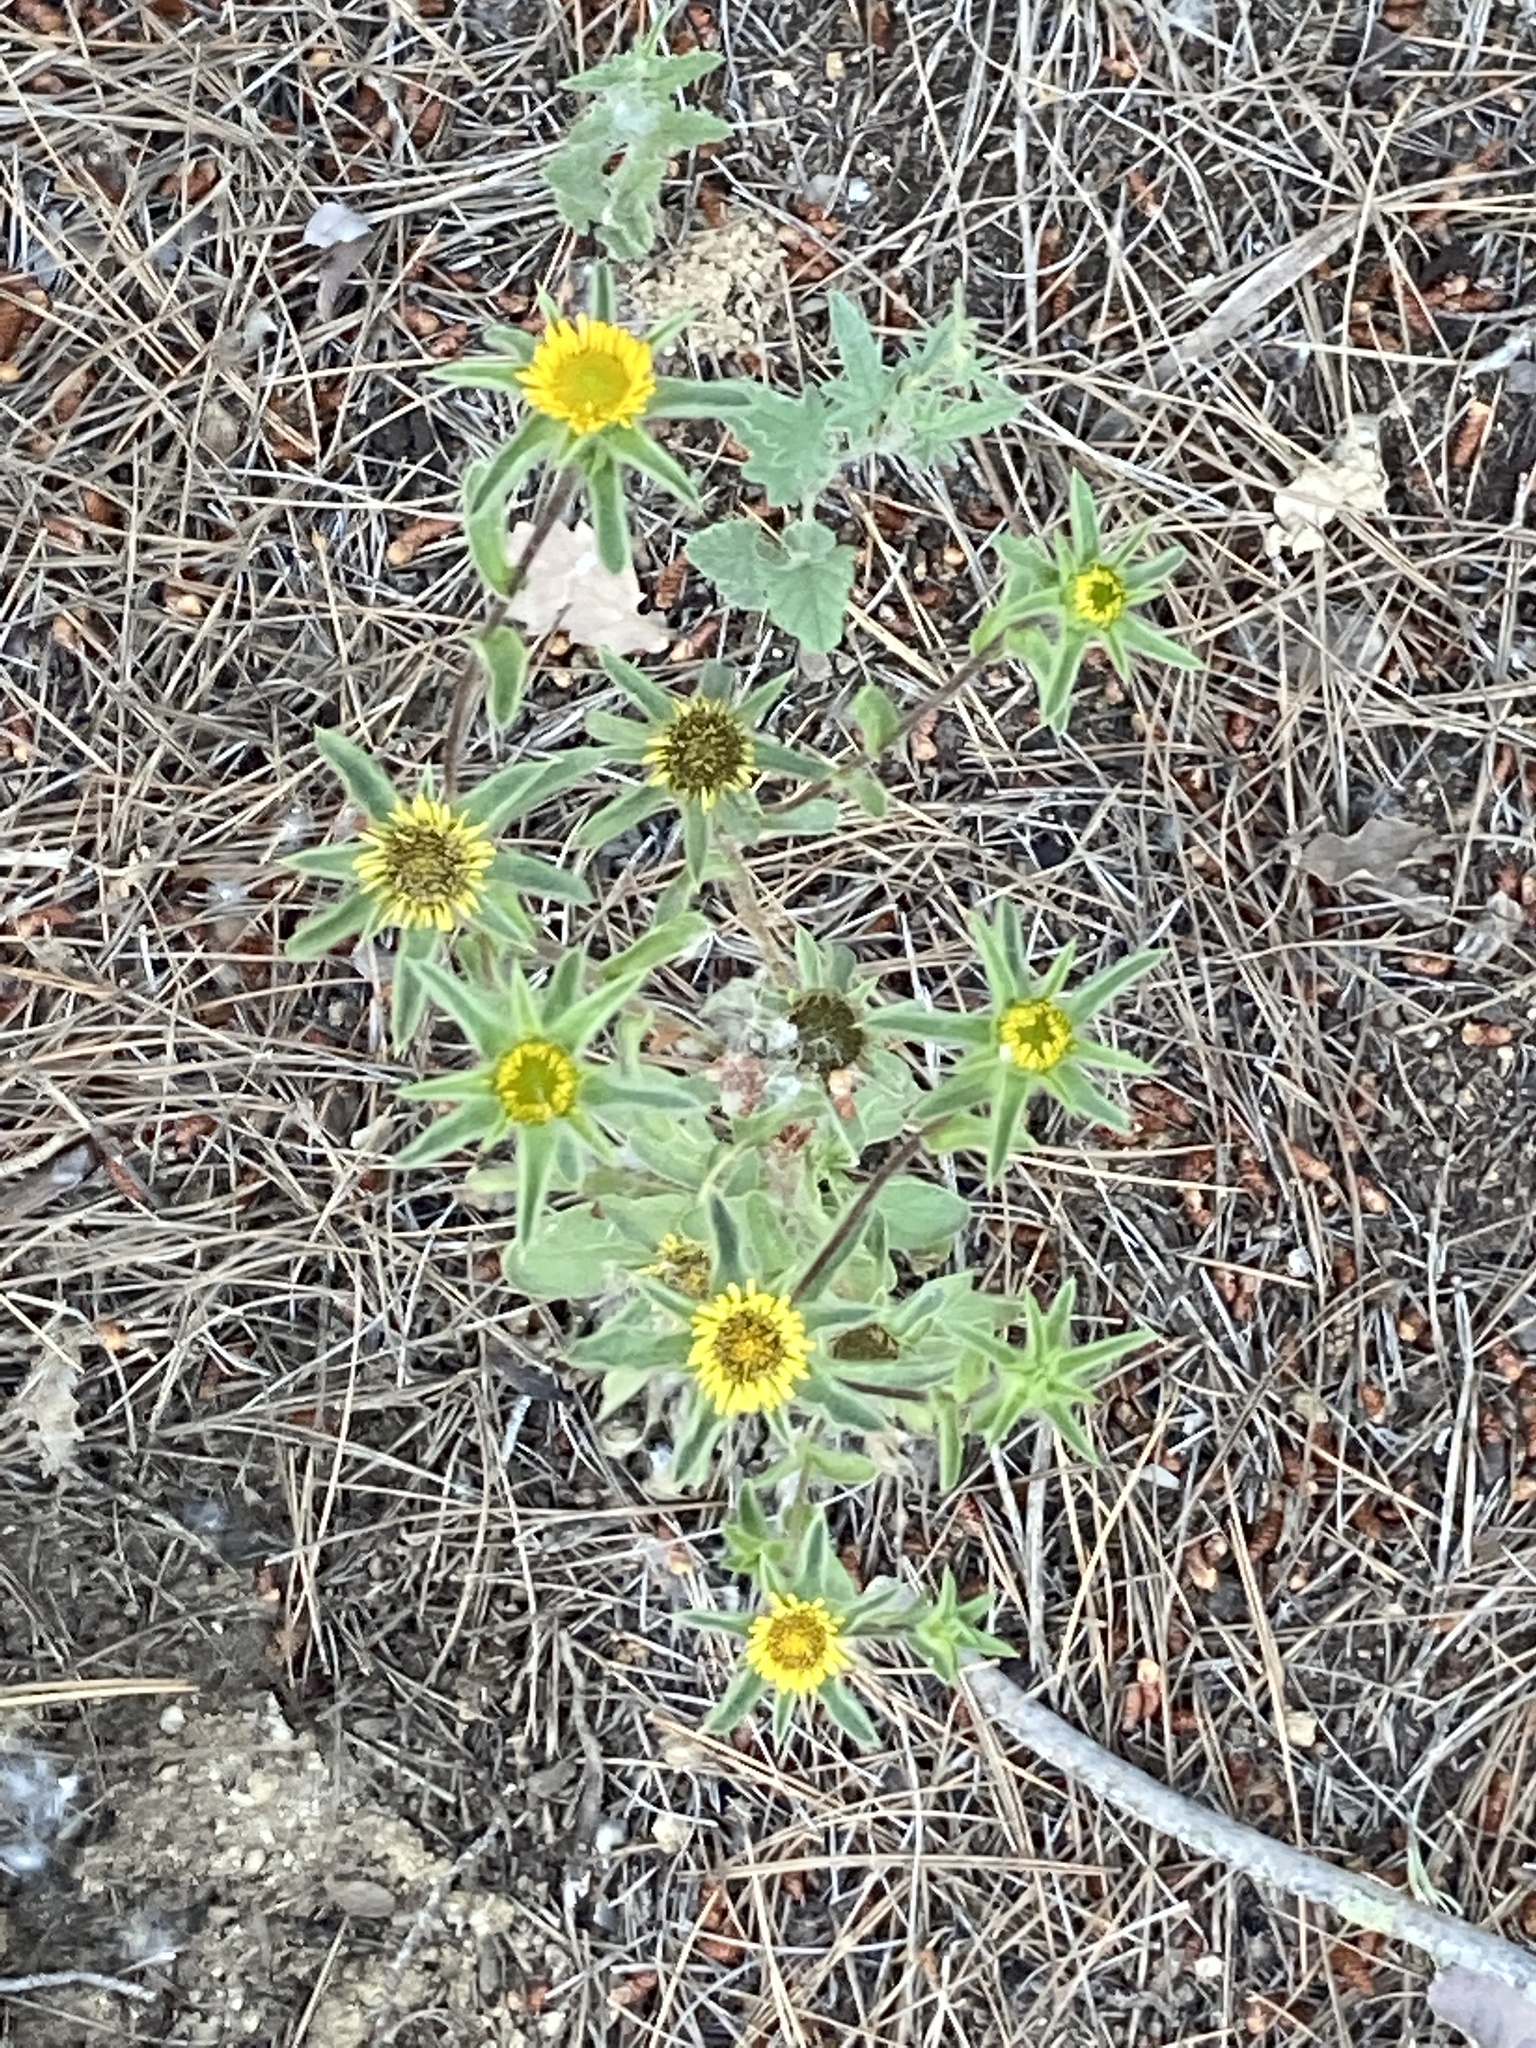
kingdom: Plantae
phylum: Tracheophyta
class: Magnoliopsida
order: Asterales
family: Asteraceae
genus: Pallenis
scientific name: Pallenis spinosa
